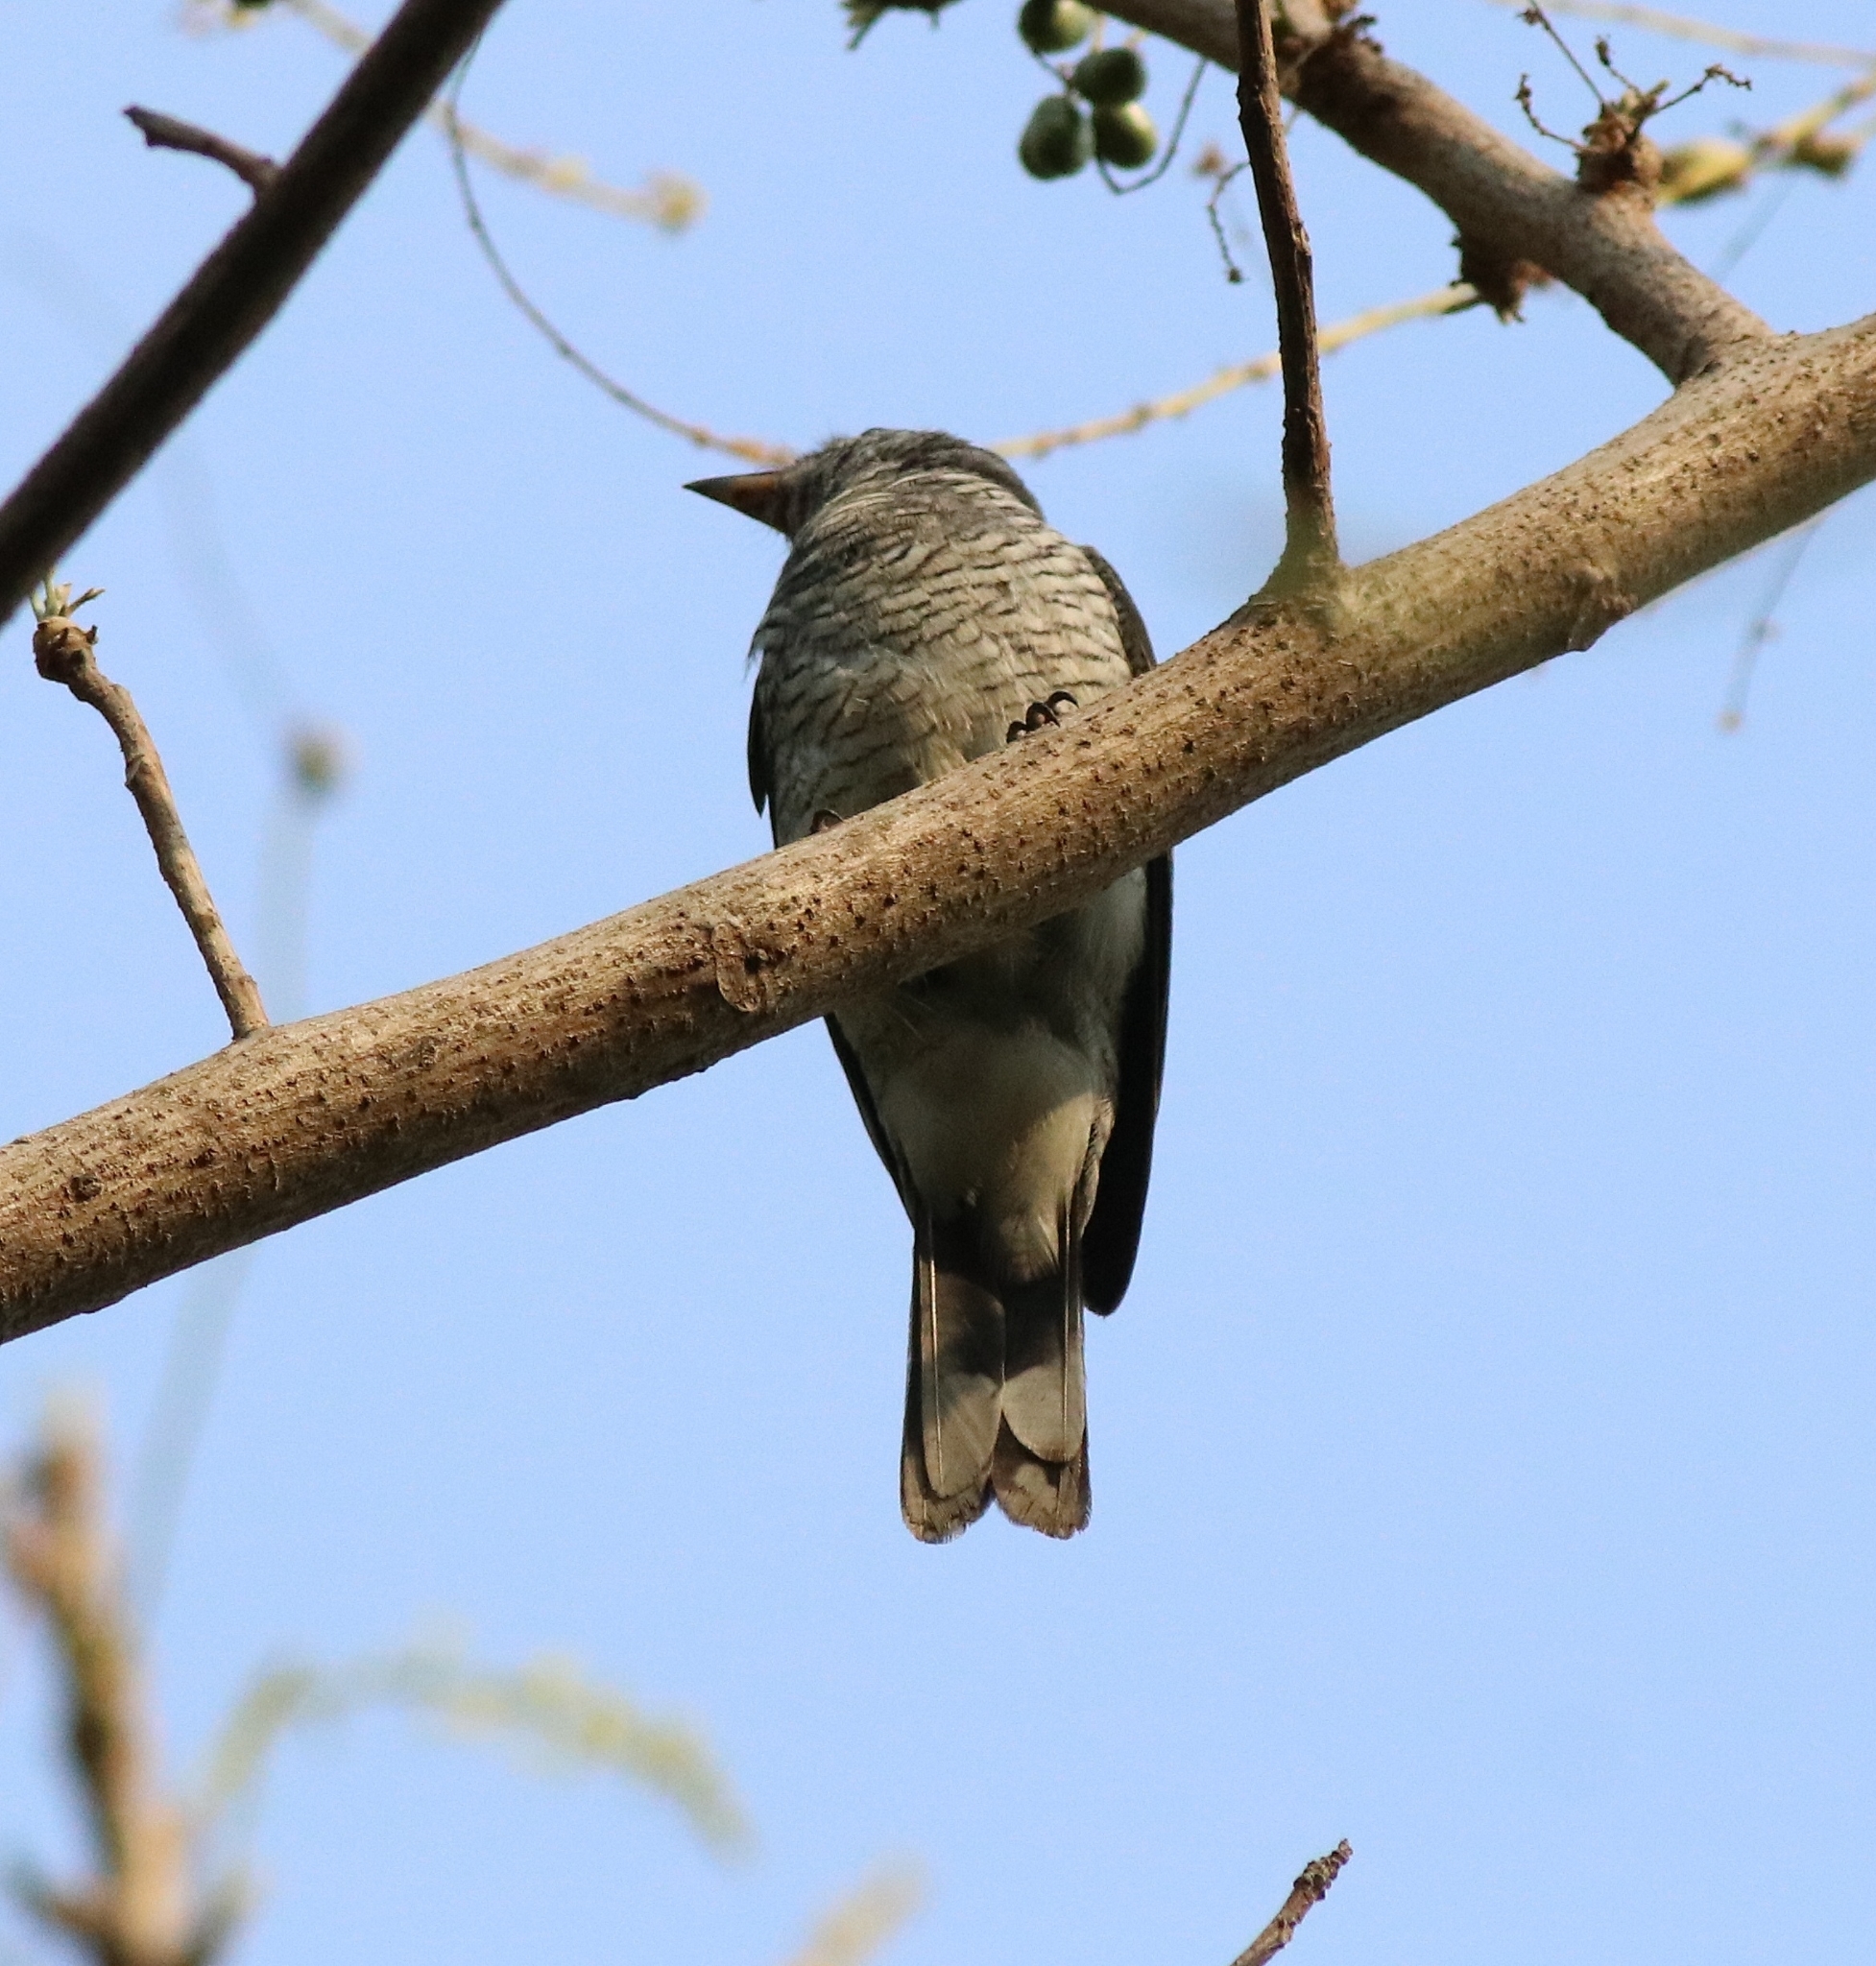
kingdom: Animalia
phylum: Chordata
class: Aves
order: Passeriformes
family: Campephagidae
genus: Coracina
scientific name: Coracina melanoptera
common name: Black-headed cuckooshrike
